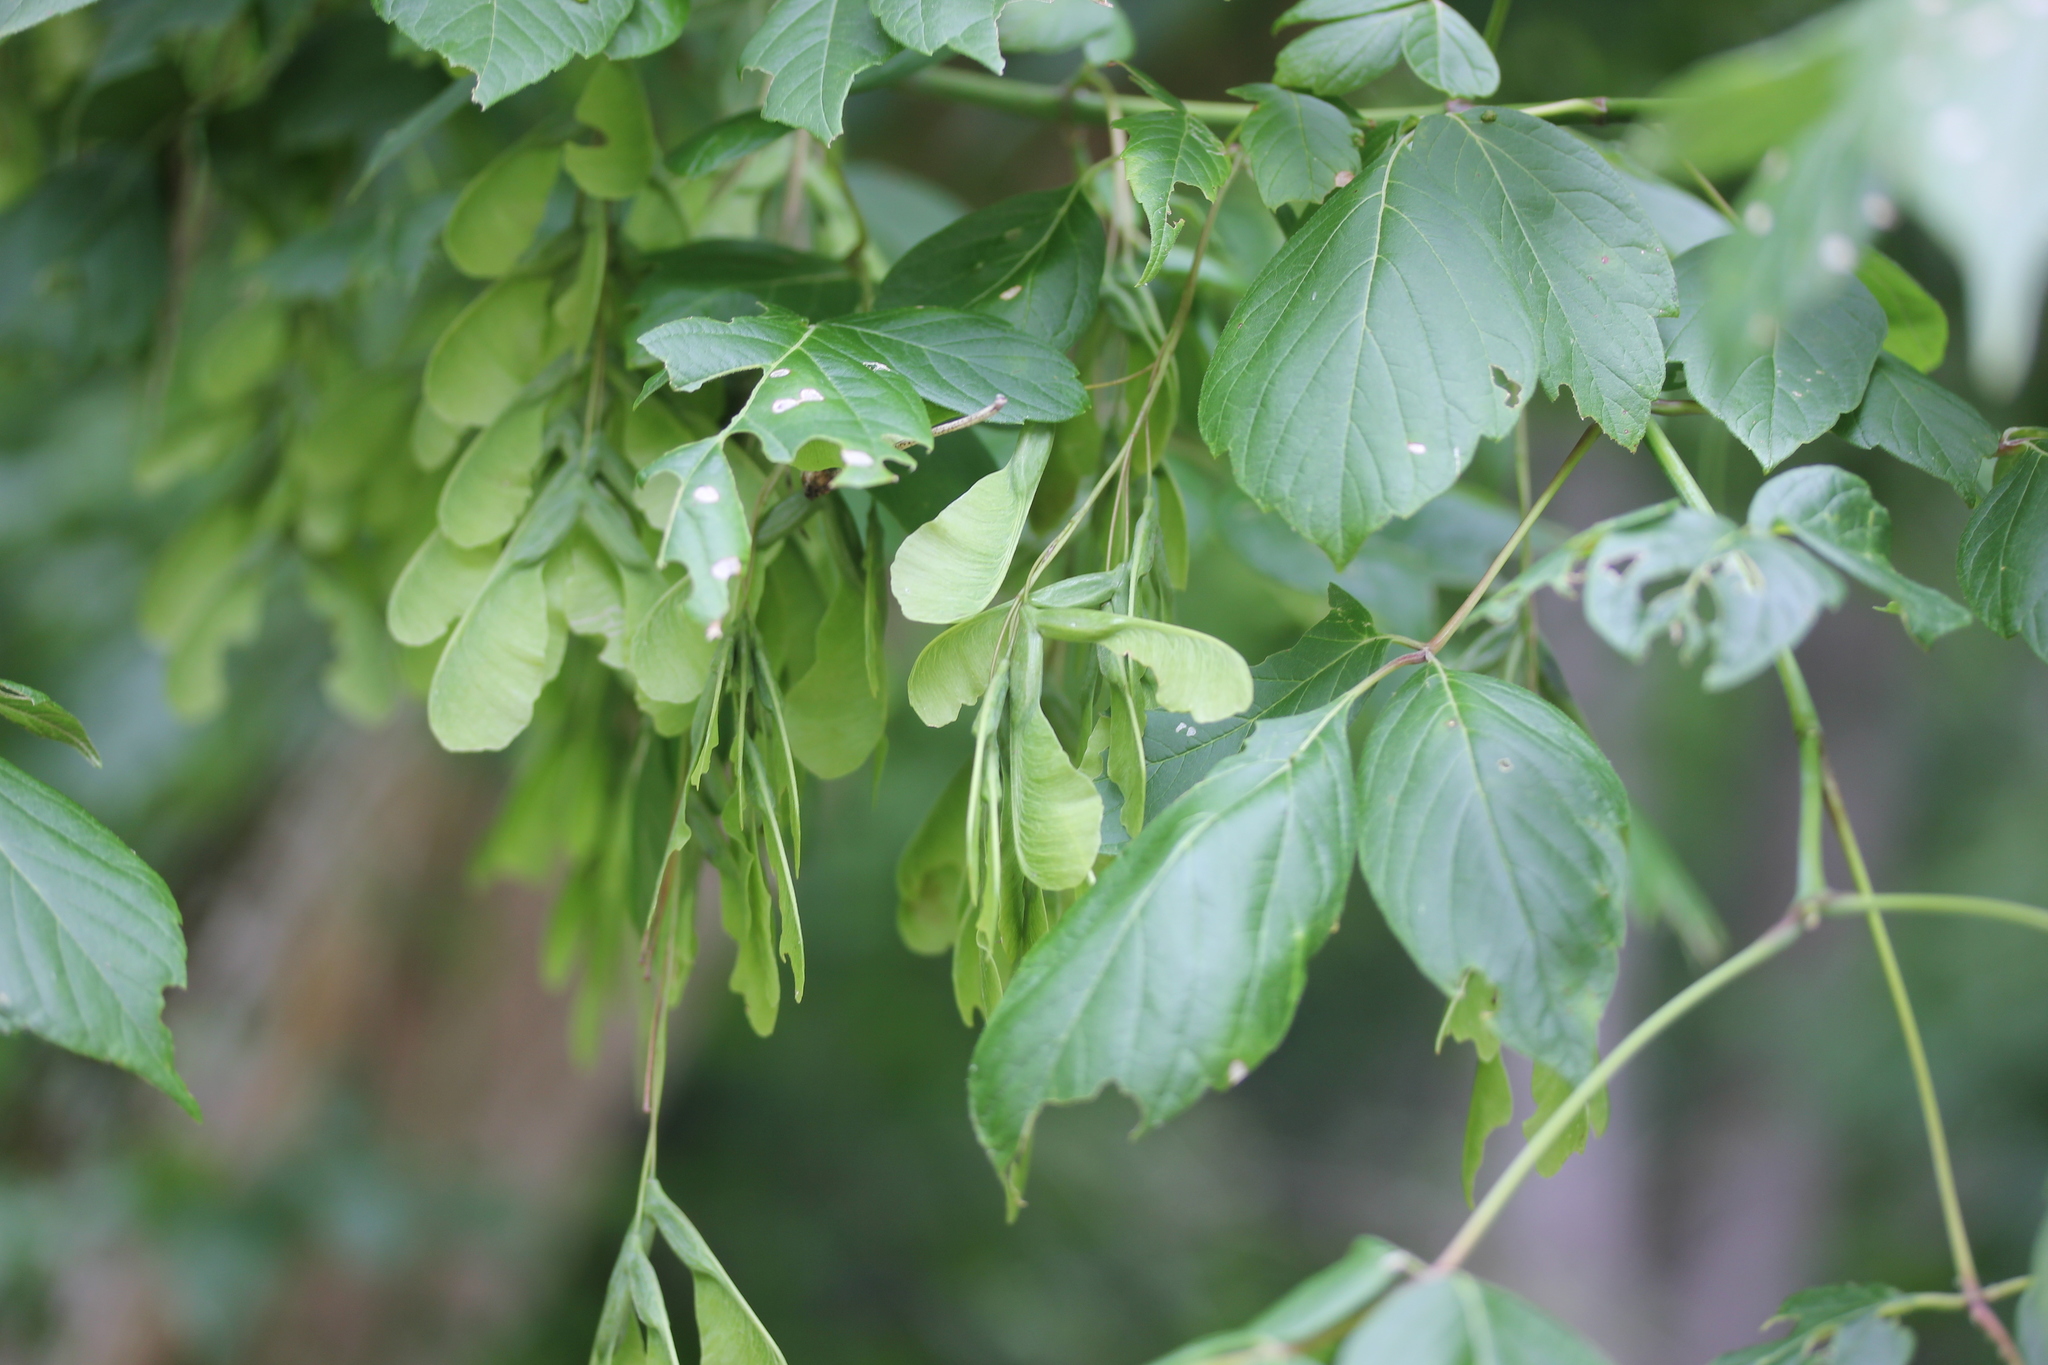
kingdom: Plantae
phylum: Tracheophyta
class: Magnoliopsida
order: Sapindales
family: Sapindaceae
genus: Acer
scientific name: Acer negundo
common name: Ashleaf maple
